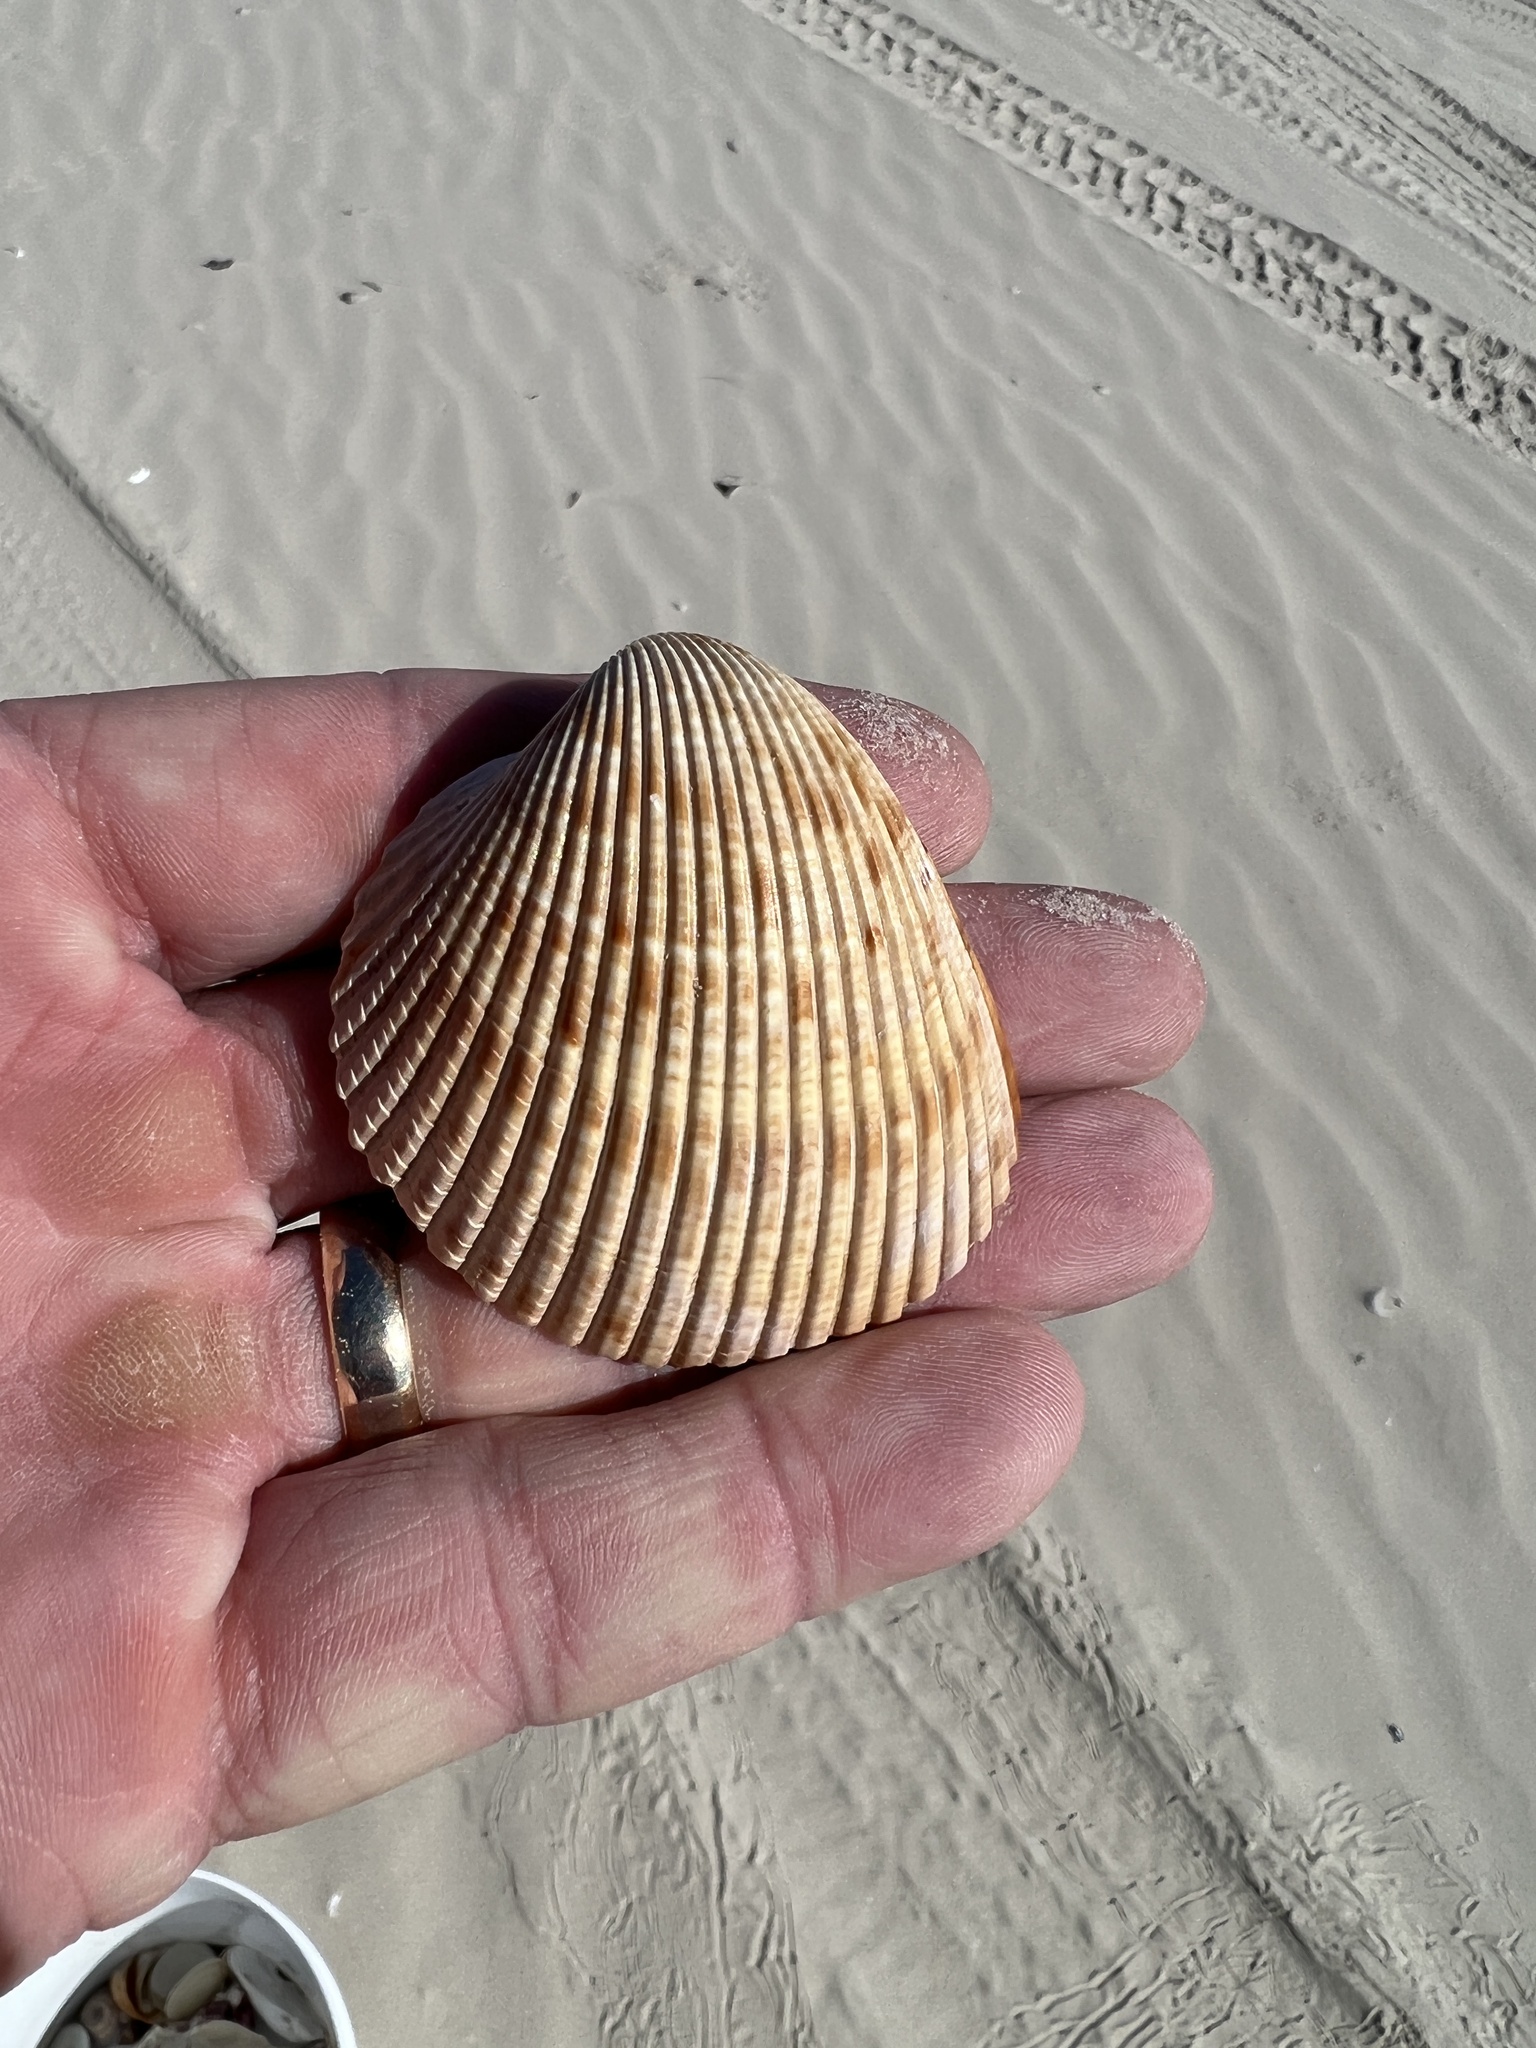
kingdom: Animalia
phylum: Mollusca
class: Bivalvia
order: Cardiida
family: Cardiidae
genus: Dinocardium
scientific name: Dinocardium robustum
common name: Atlantic giant cockle
